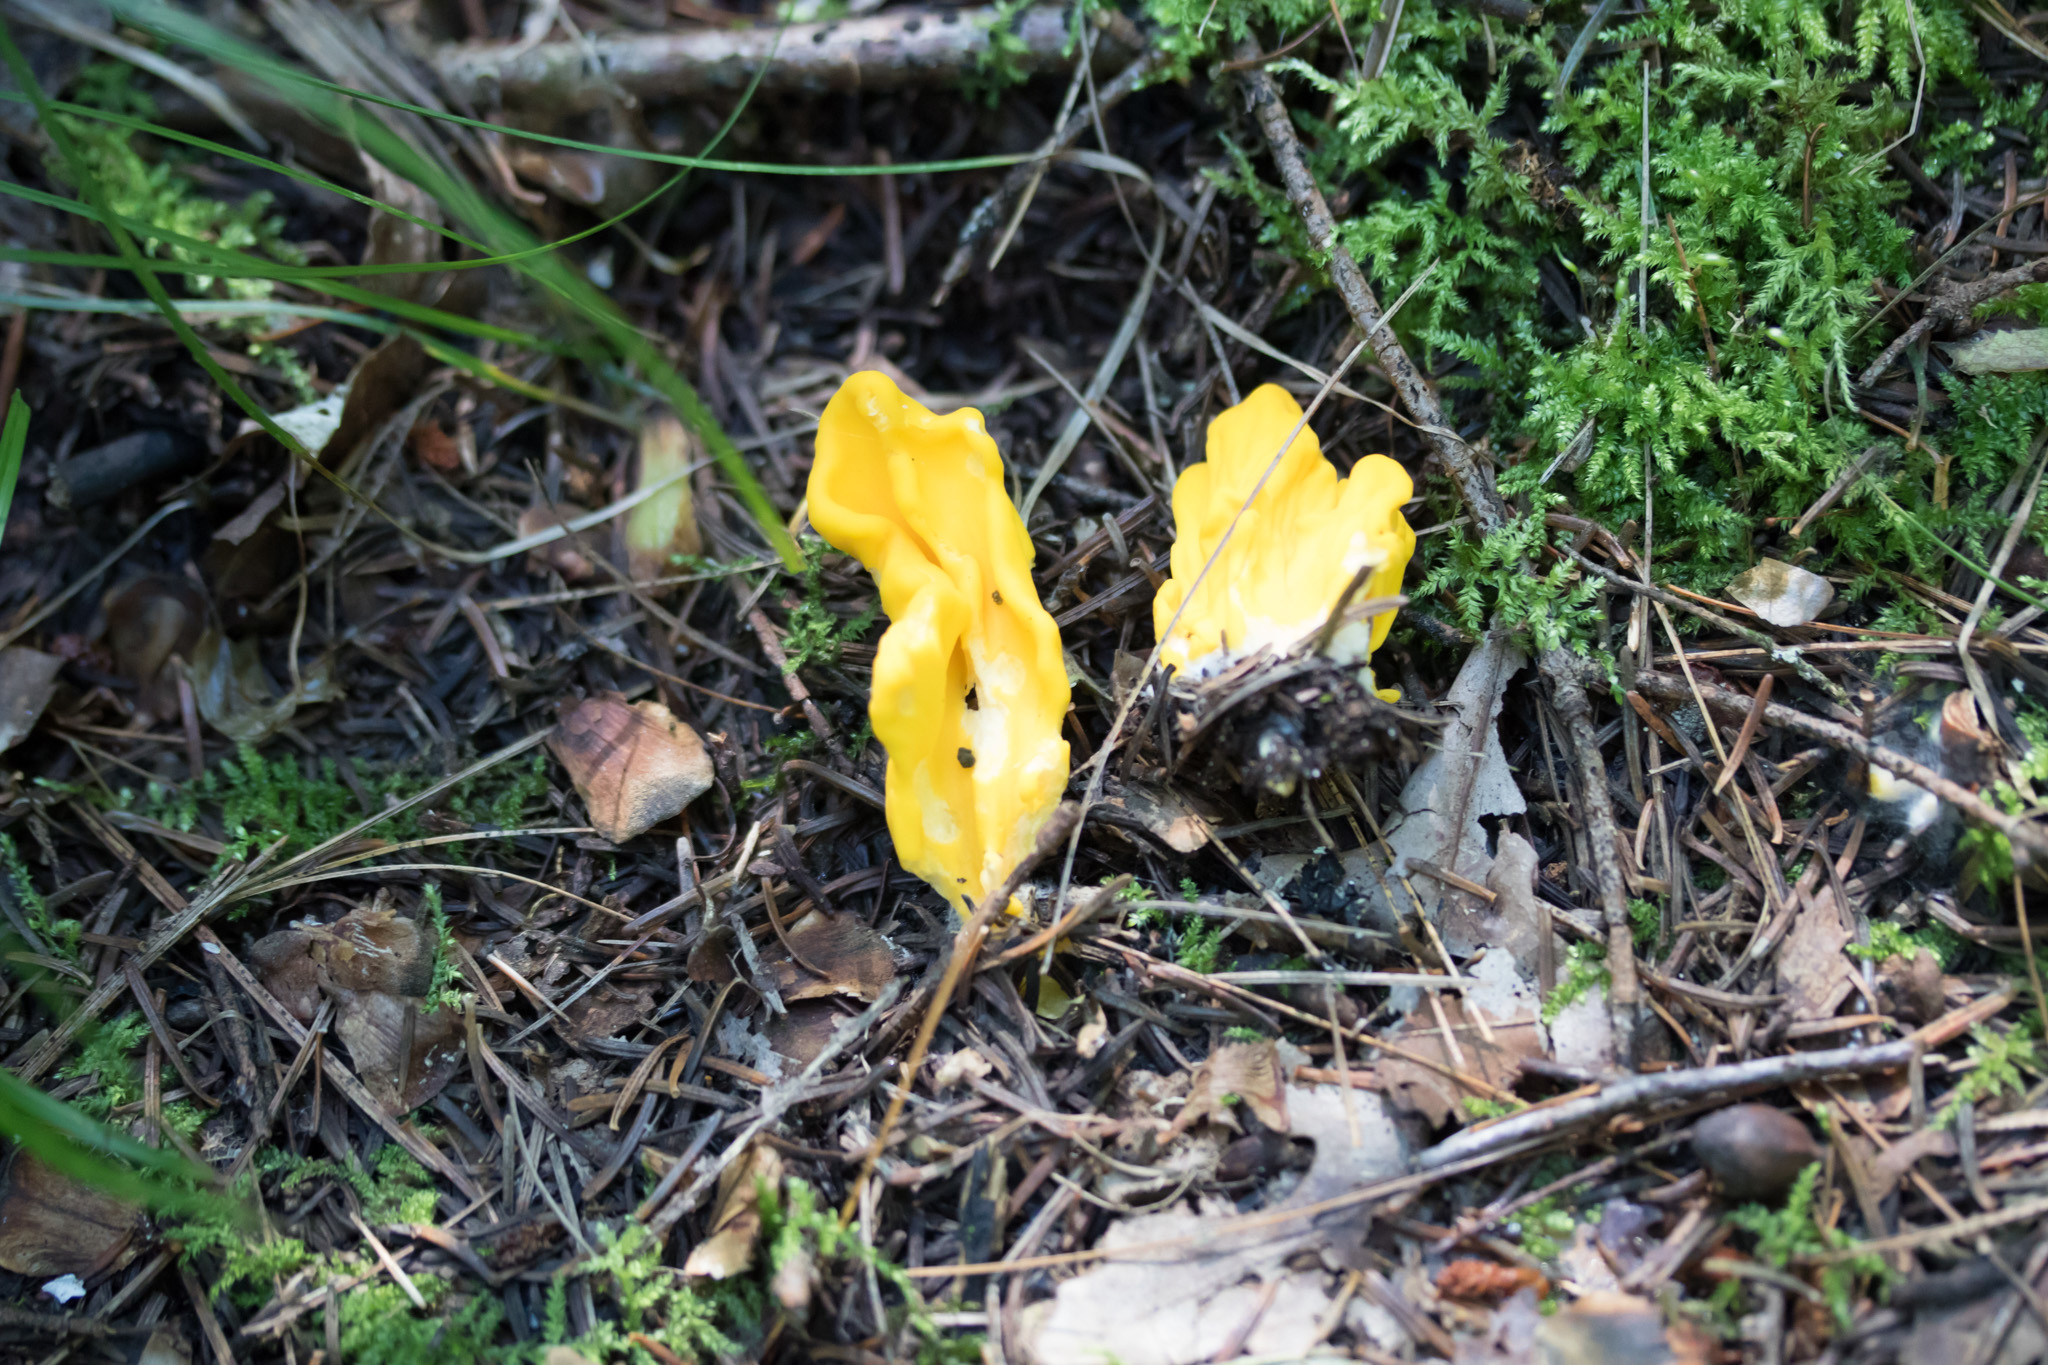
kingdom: Fungi
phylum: Ascomycota
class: Neolectomycetes
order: Neolectales
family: Neolectaceae
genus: Neolecta
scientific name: Neolecta irregularis
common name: Irregular earth tongue
